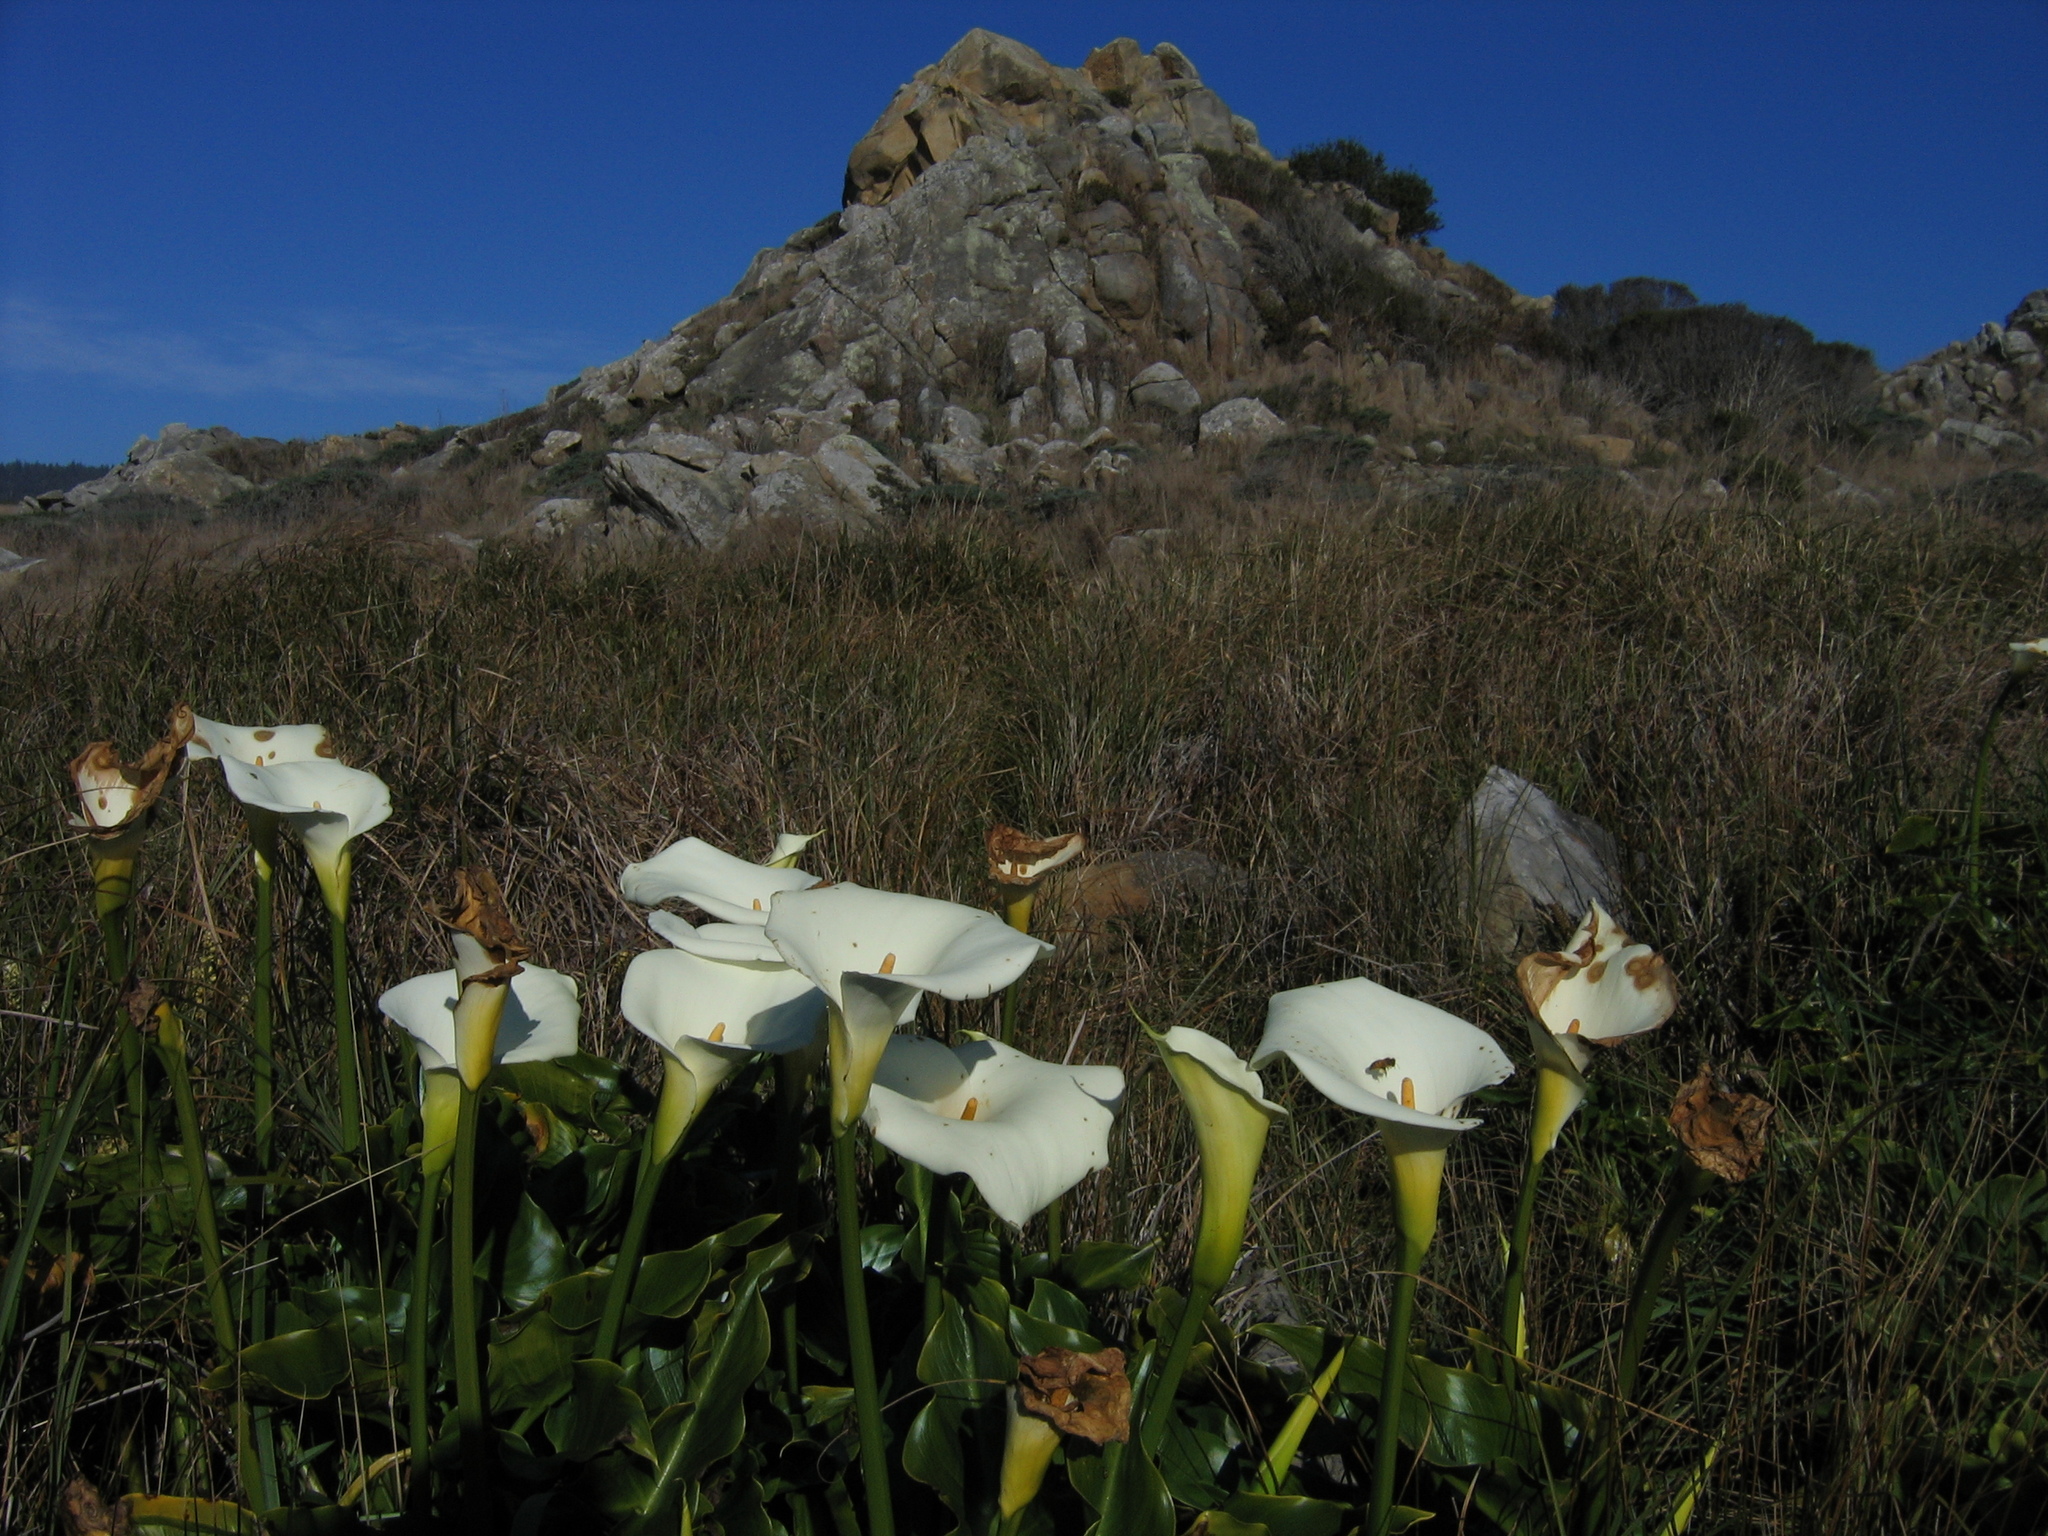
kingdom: Plantae
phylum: Tracheophyta
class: Liliopsida
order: Alismatales
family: Araceae
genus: Zantedeschia
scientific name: Zantedeschia aethiopica
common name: Altar-lily
